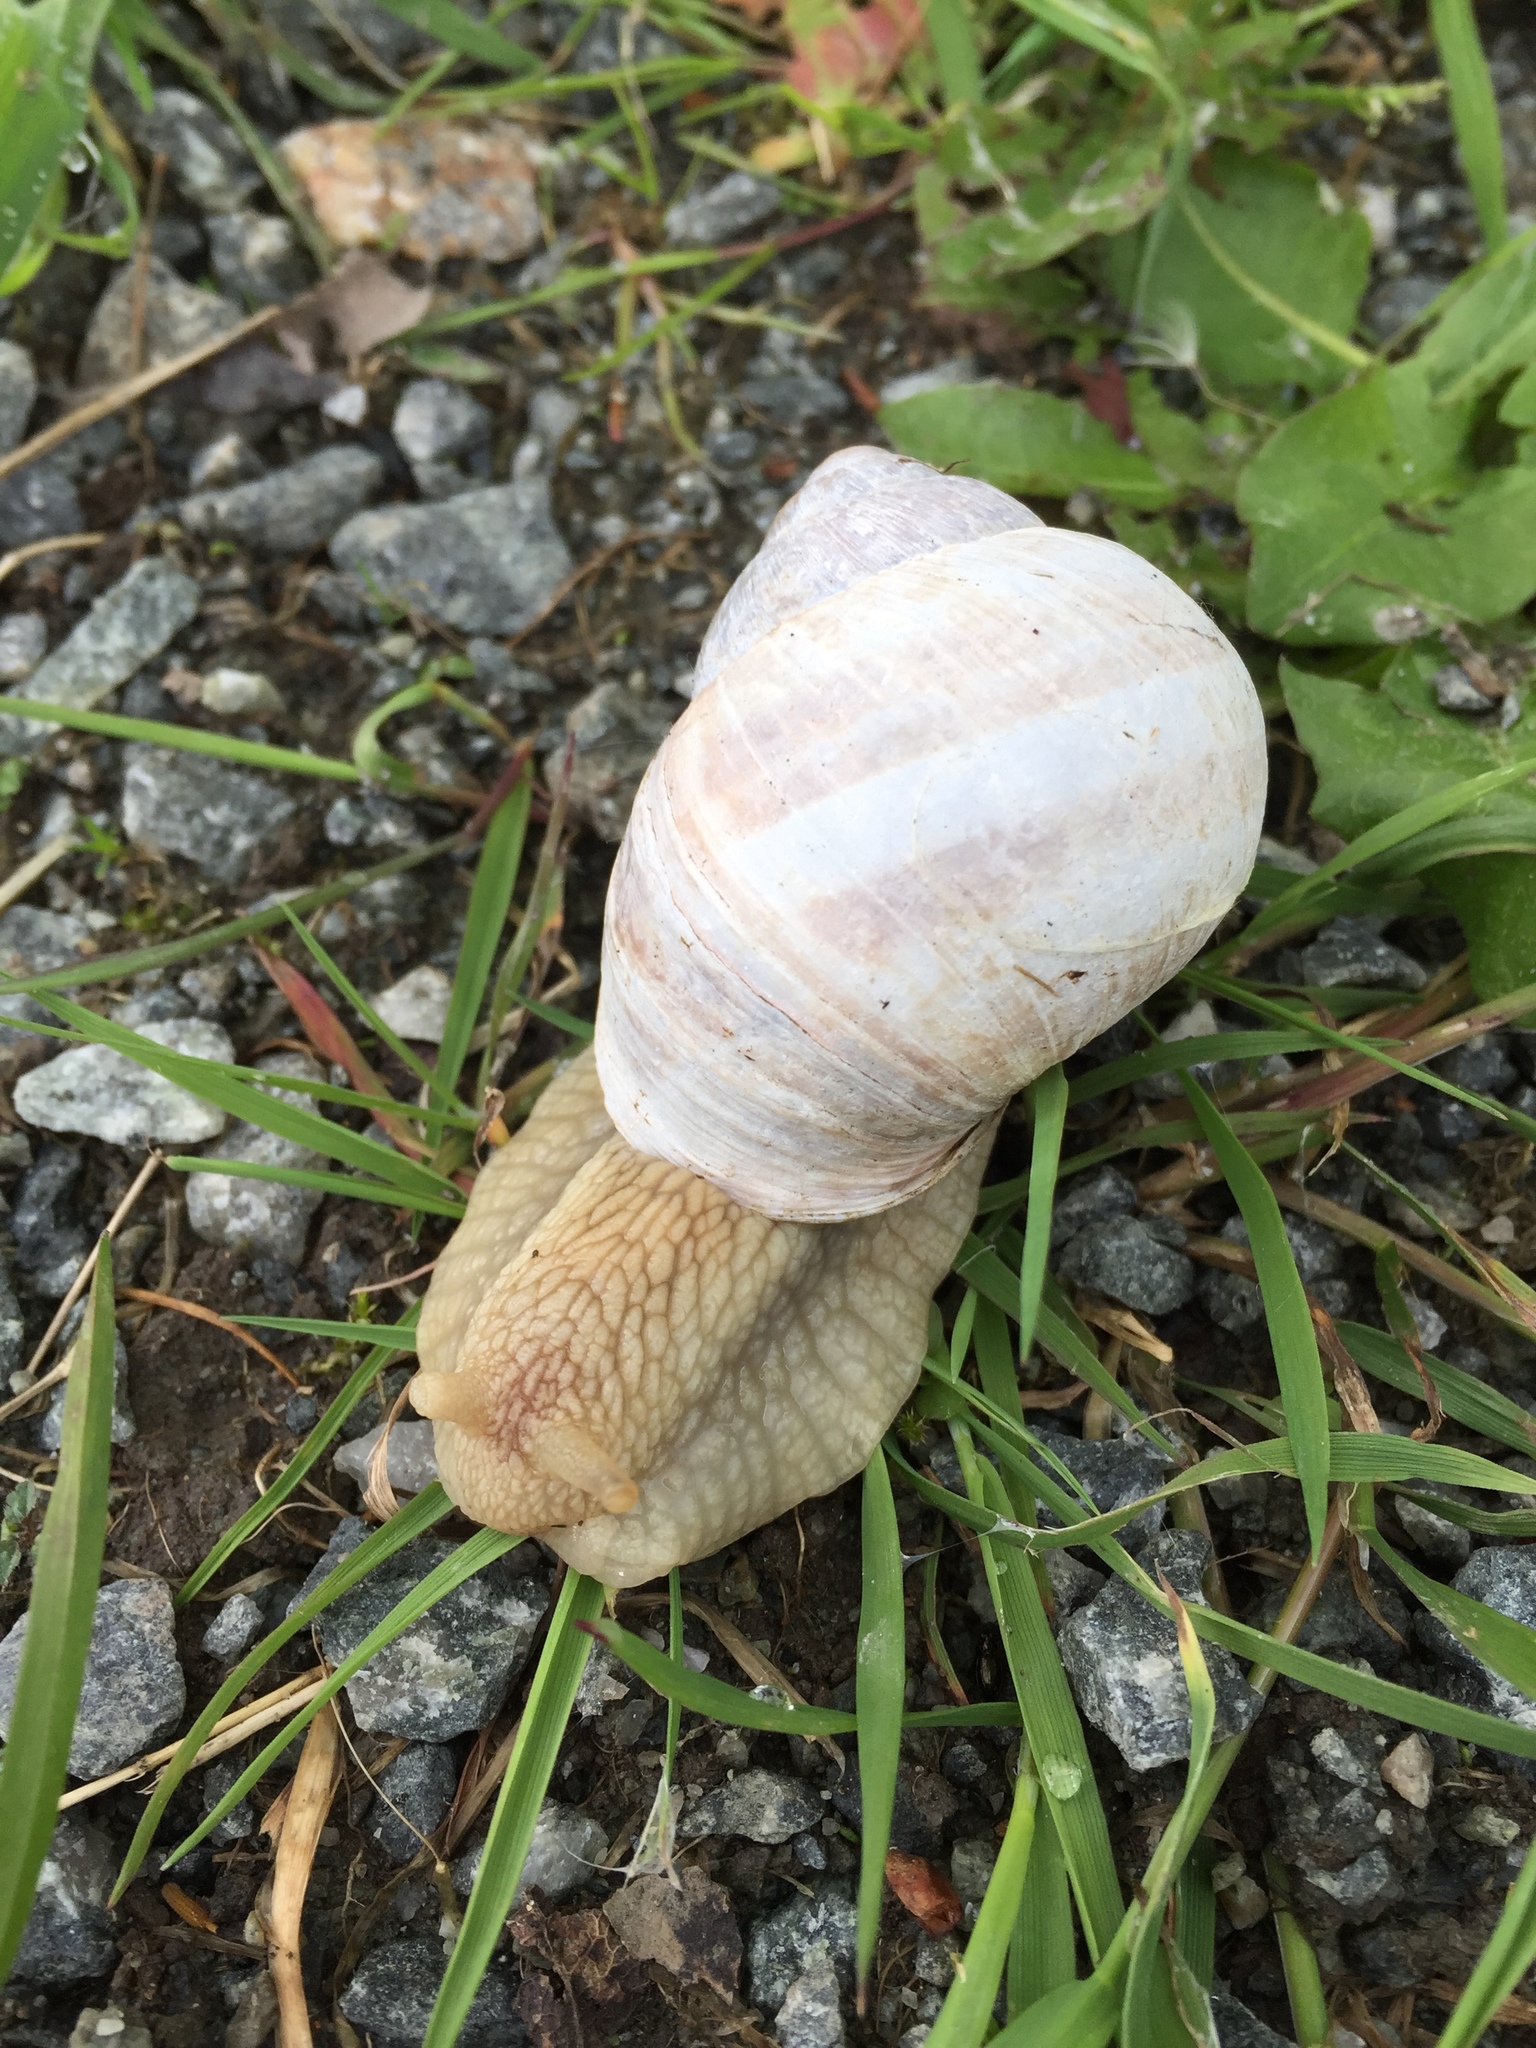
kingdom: Animalia
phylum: Mollusca
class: Gastropoda
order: Stylommatophora
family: Helicidae
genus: Helix
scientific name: Helix pomatia
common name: Roman snail
